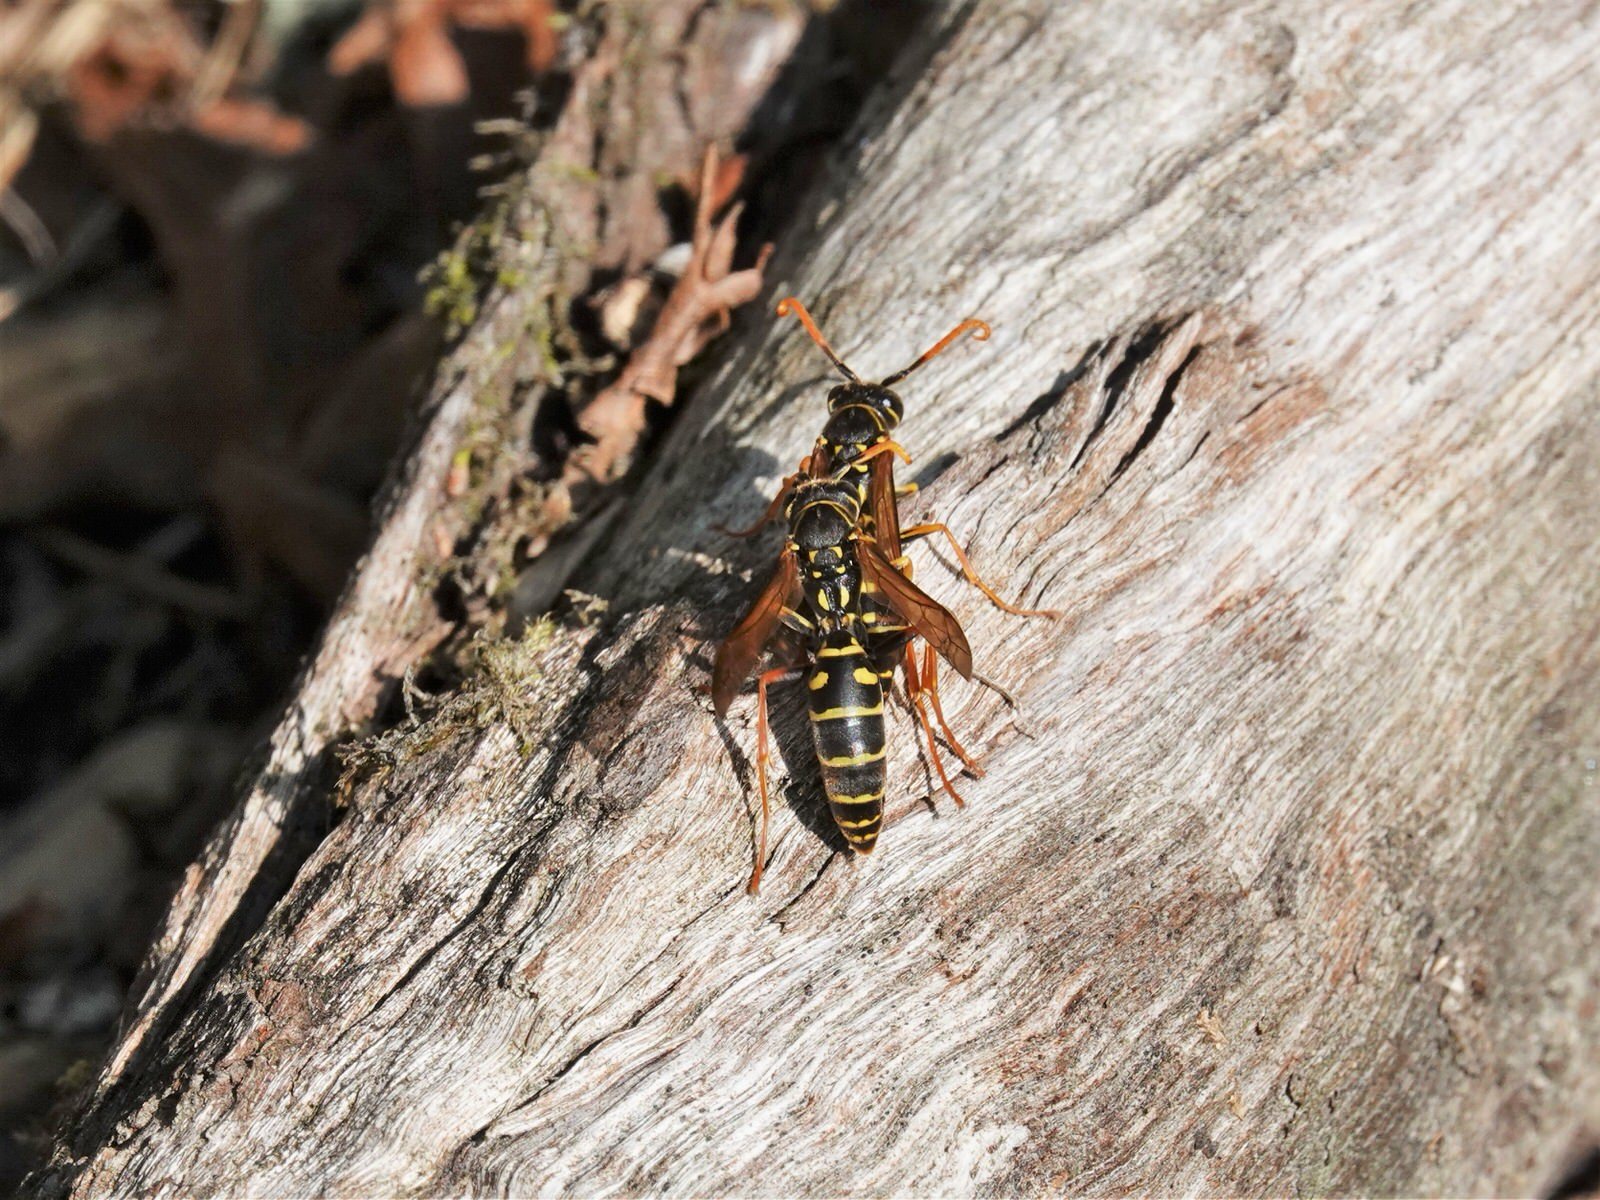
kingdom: Animalia
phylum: Arthropoda
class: Insecta
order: Hymenoptera
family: Eumenidae
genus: Polistes
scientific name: Polistes chinensis
